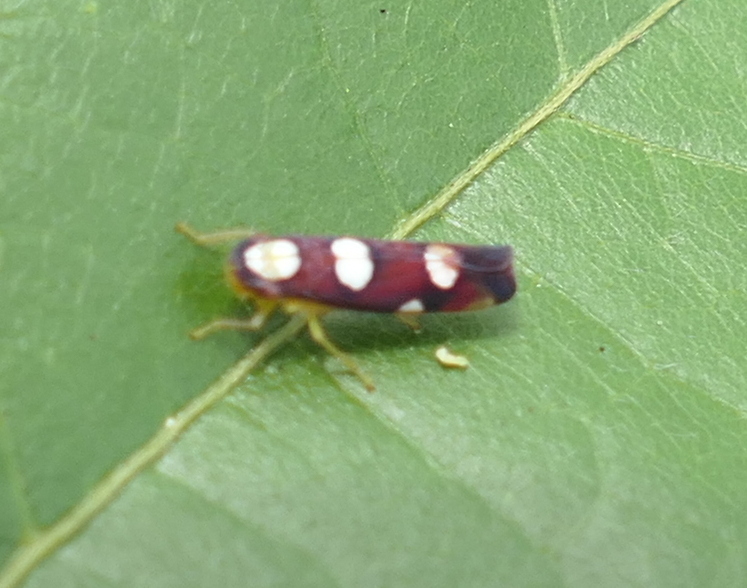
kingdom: Animalia
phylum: Arthropoda
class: Insecta
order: Hemiptera
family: Cicadellidae
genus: Erythrogonia
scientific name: Erythrogonia sexguttata
